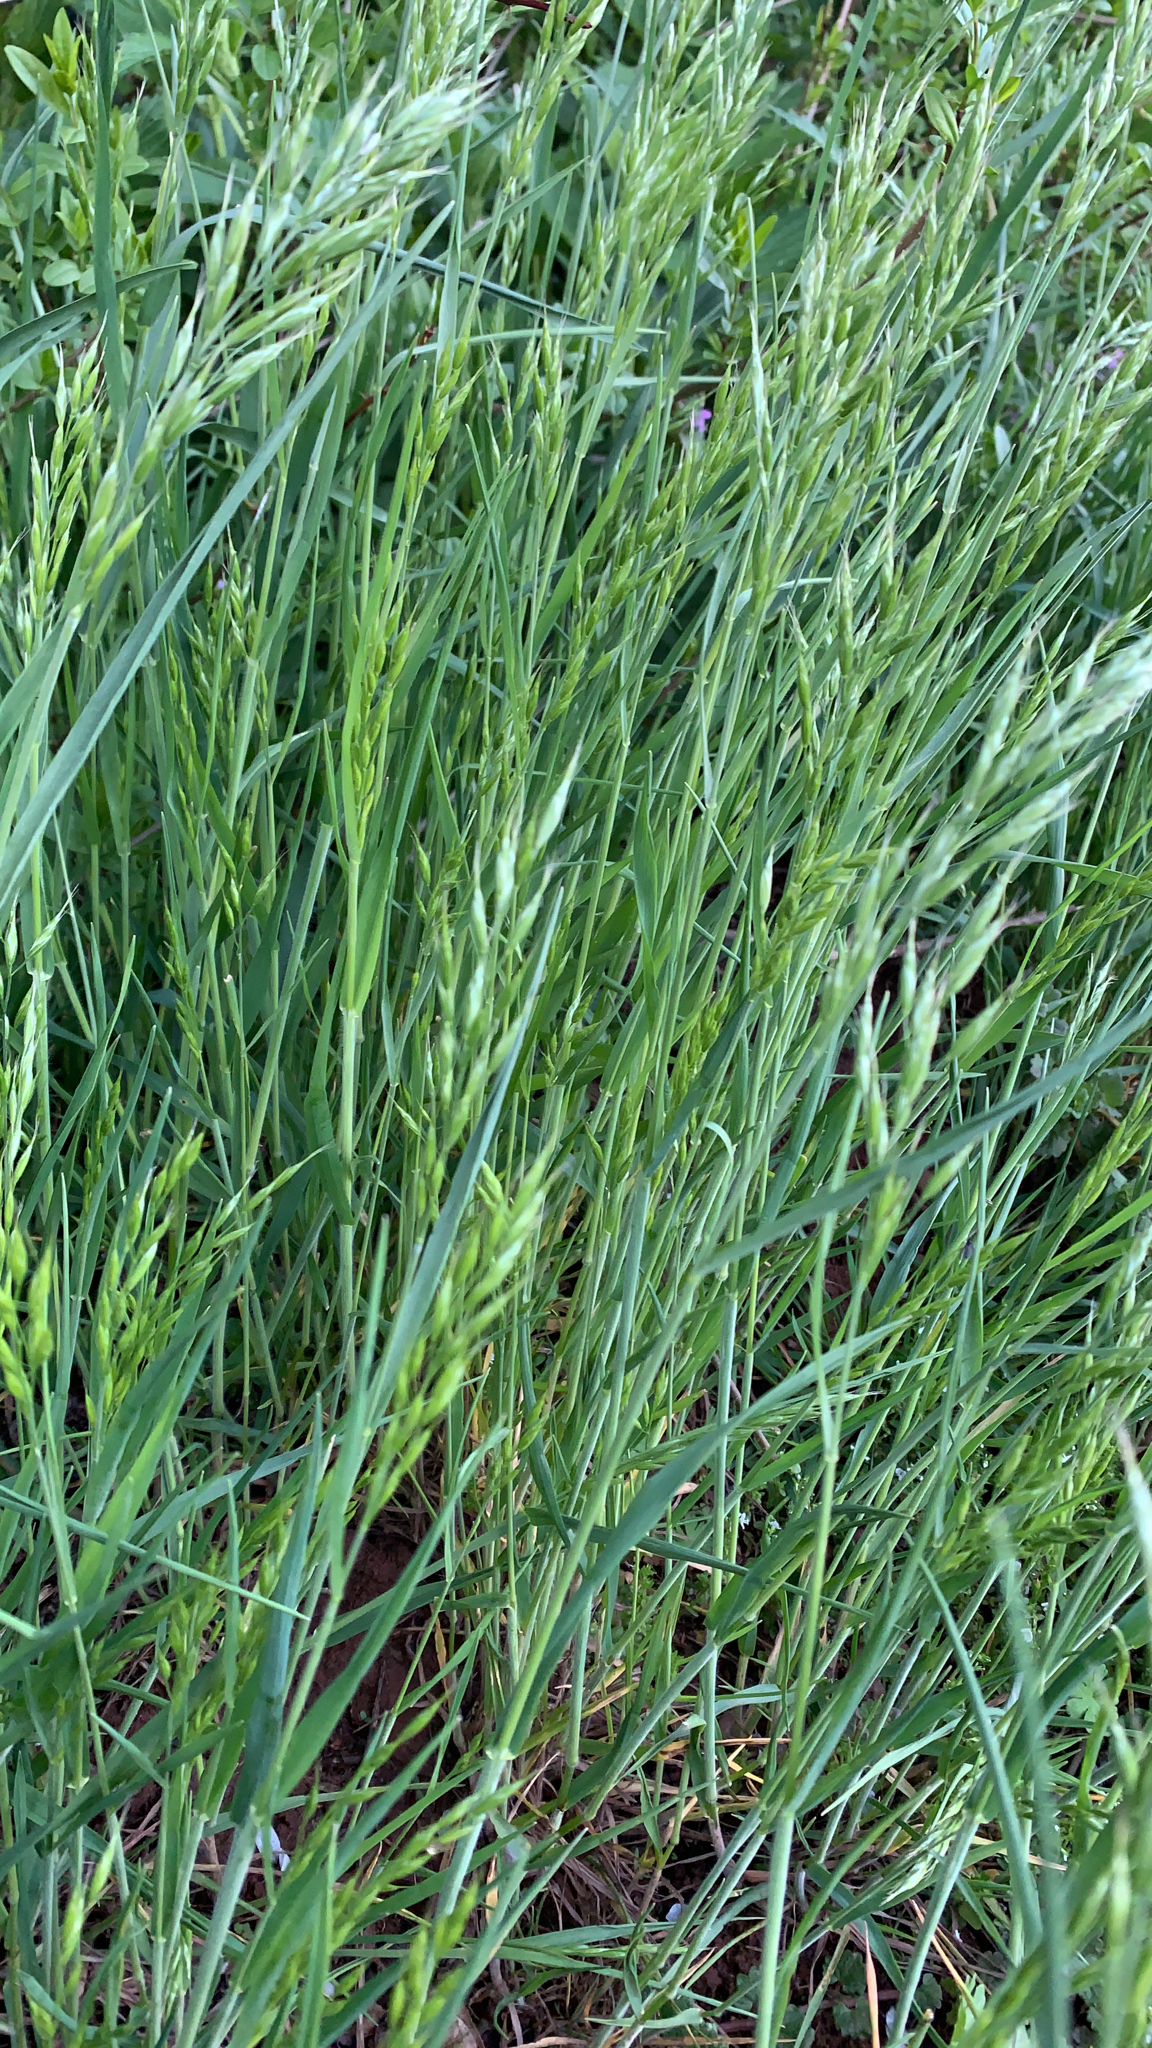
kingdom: Plantae
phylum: Tracheophyta
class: Liliopsida
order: Poales
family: Poaceae
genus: Bromus
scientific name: Bromus hordeaceus
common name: Soft brome
